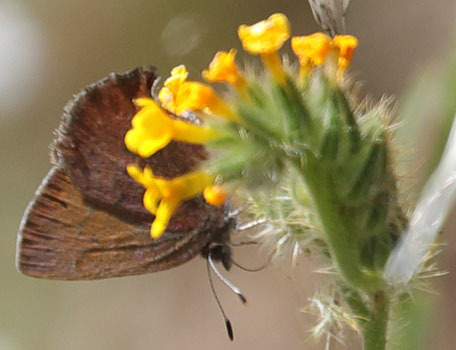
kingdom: Animalia
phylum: Arthropoda
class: Insecta
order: Lepidoptera
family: Lycaenidae
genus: Incisalia
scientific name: Incisalia irioides
